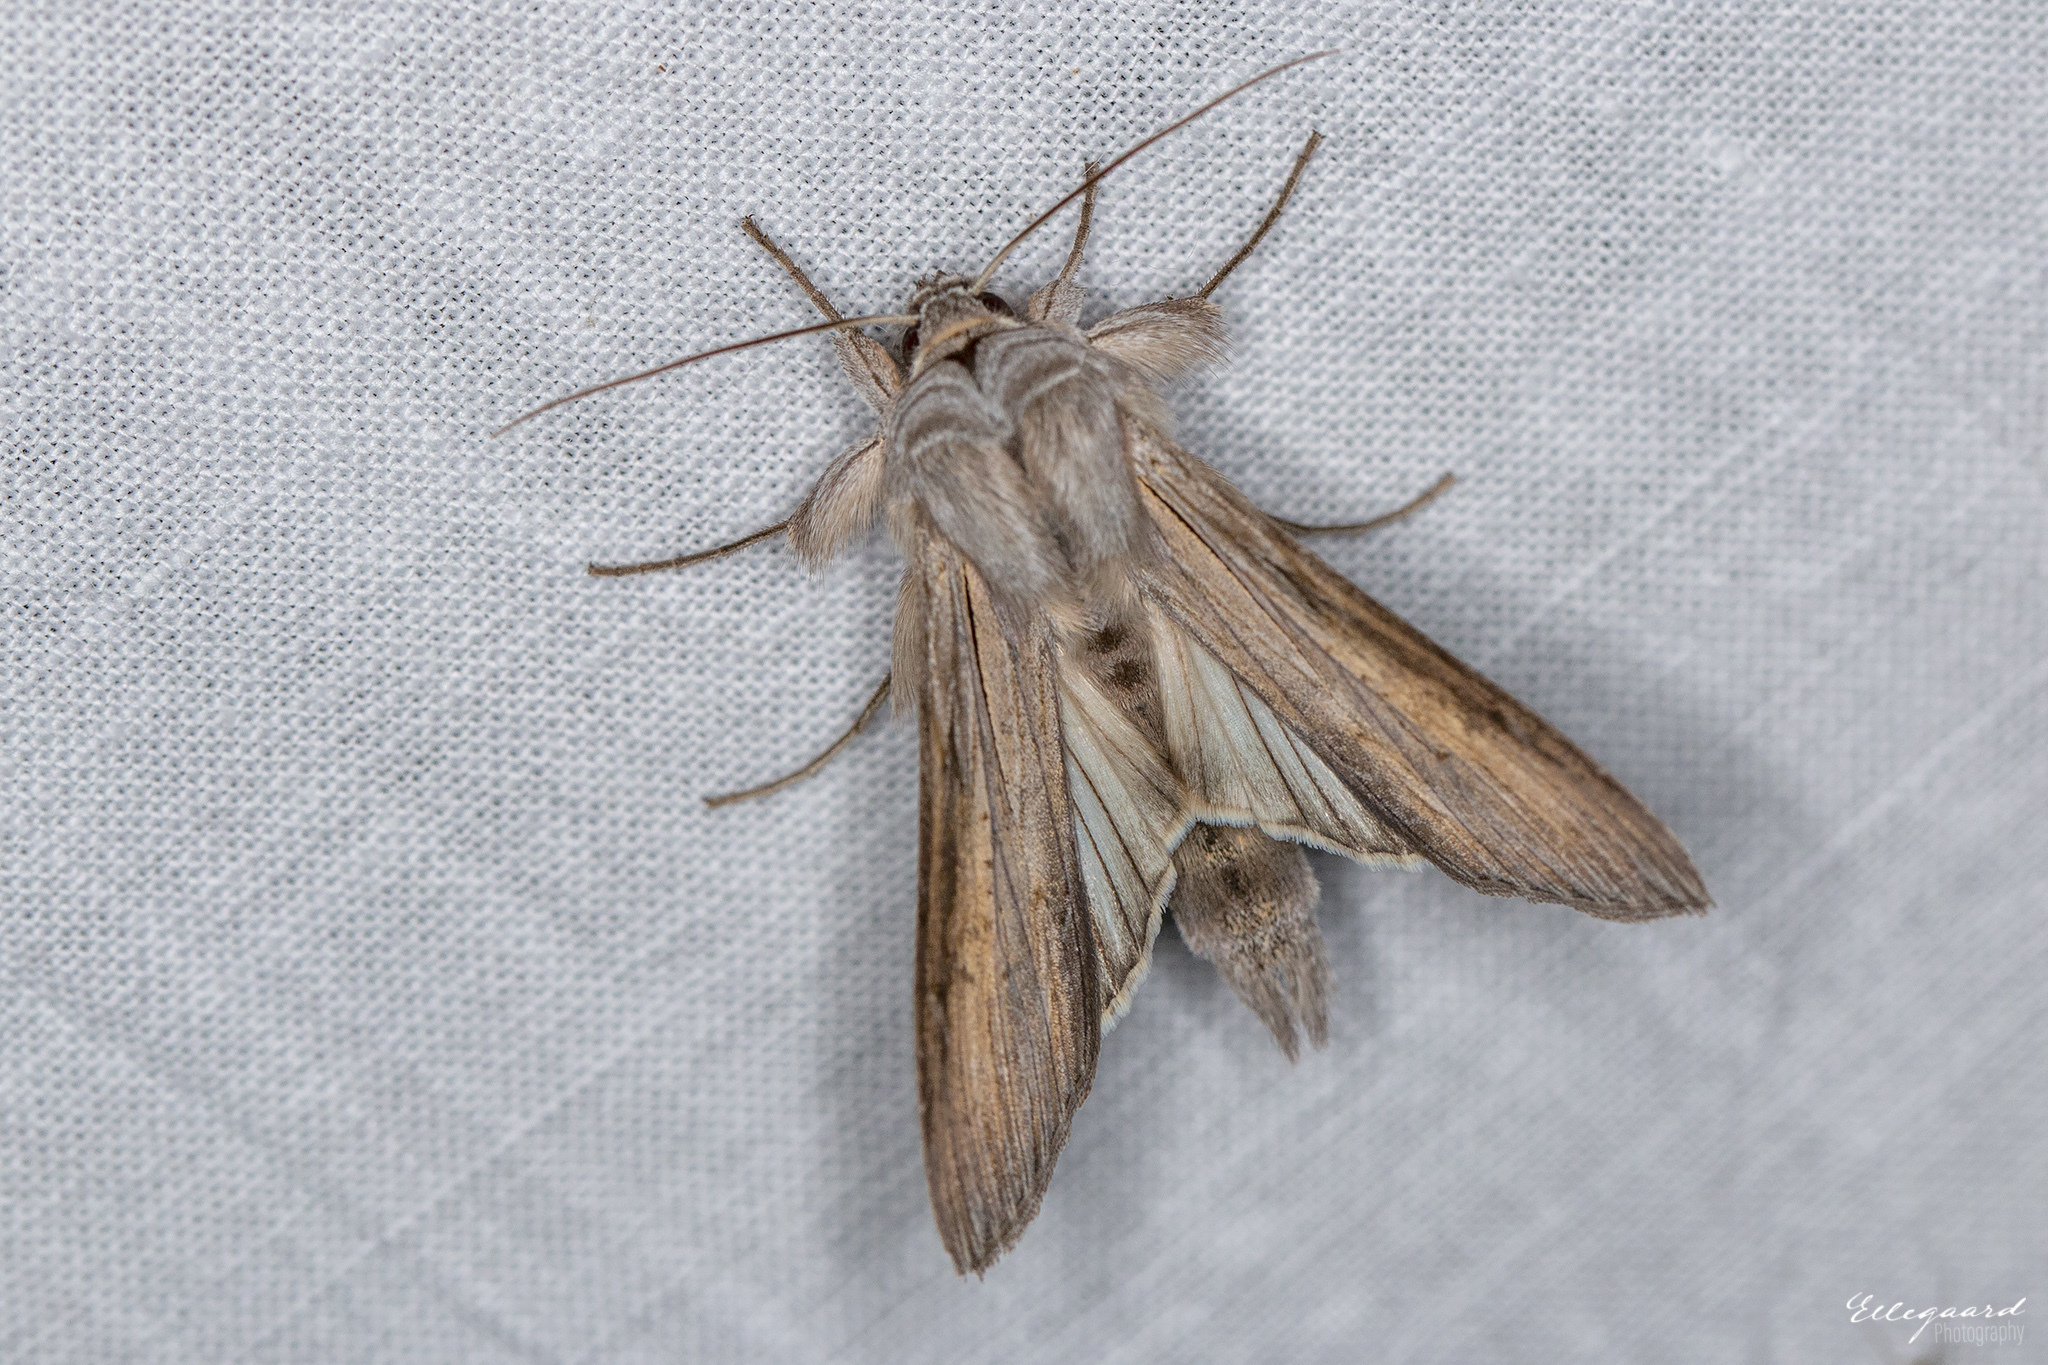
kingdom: Animalia
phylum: Arthropoda
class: Insecta
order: Lepidoptera
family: Noctuidae
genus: Cucullia
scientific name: Cucullia umbratica
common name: Shark
